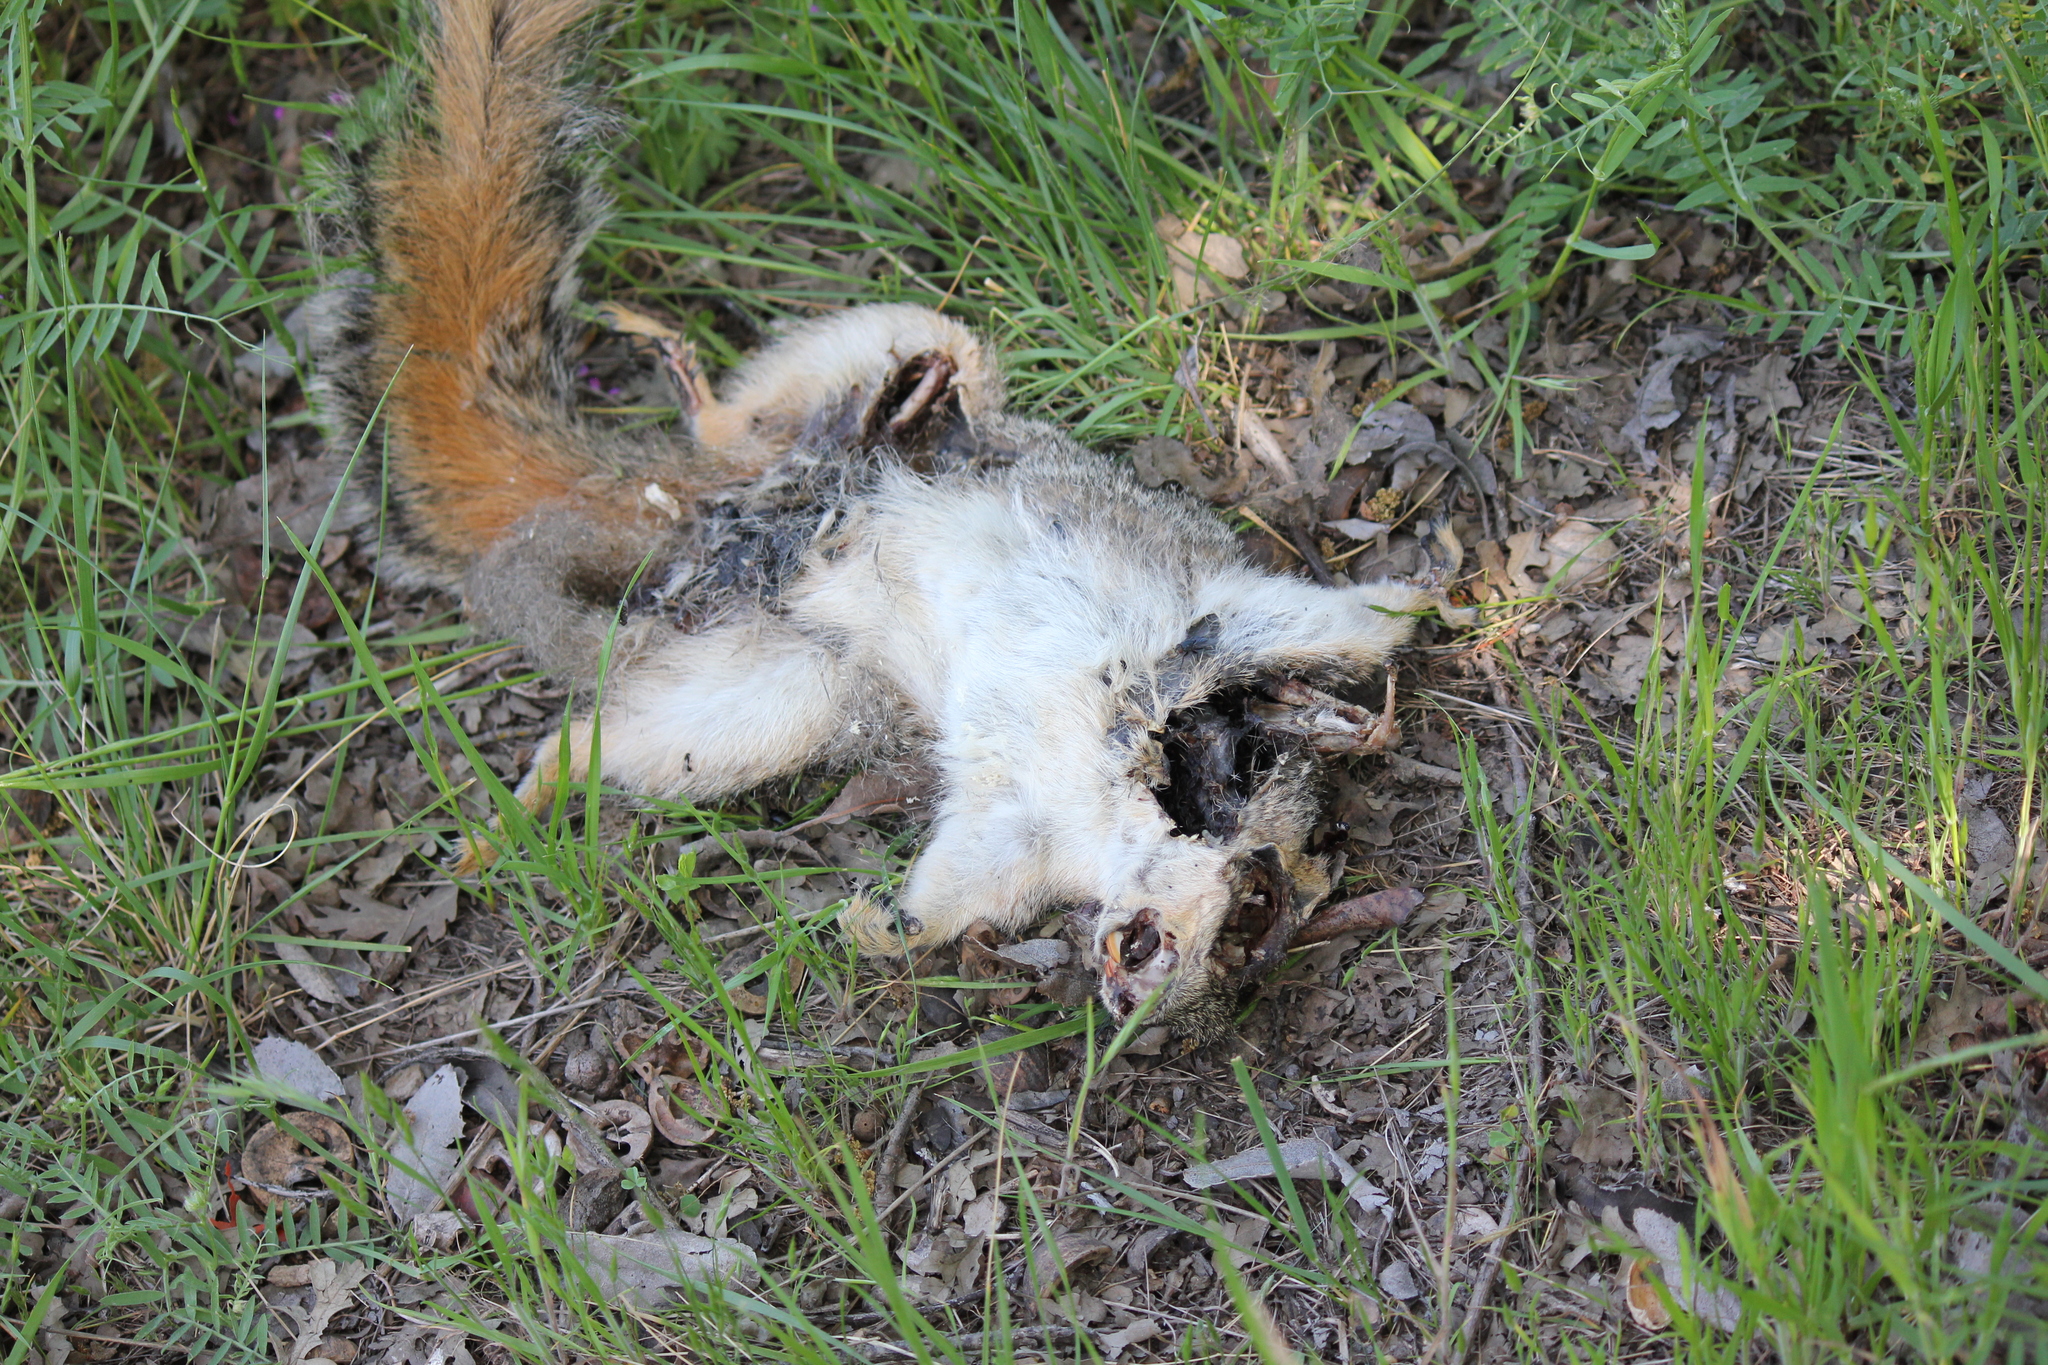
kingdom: Animalia
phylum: Chordata
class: Mammalia
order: Rodentia
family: Sciuridae
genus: Sciurus
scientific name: Sciurus niger
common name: Fox squirrel
